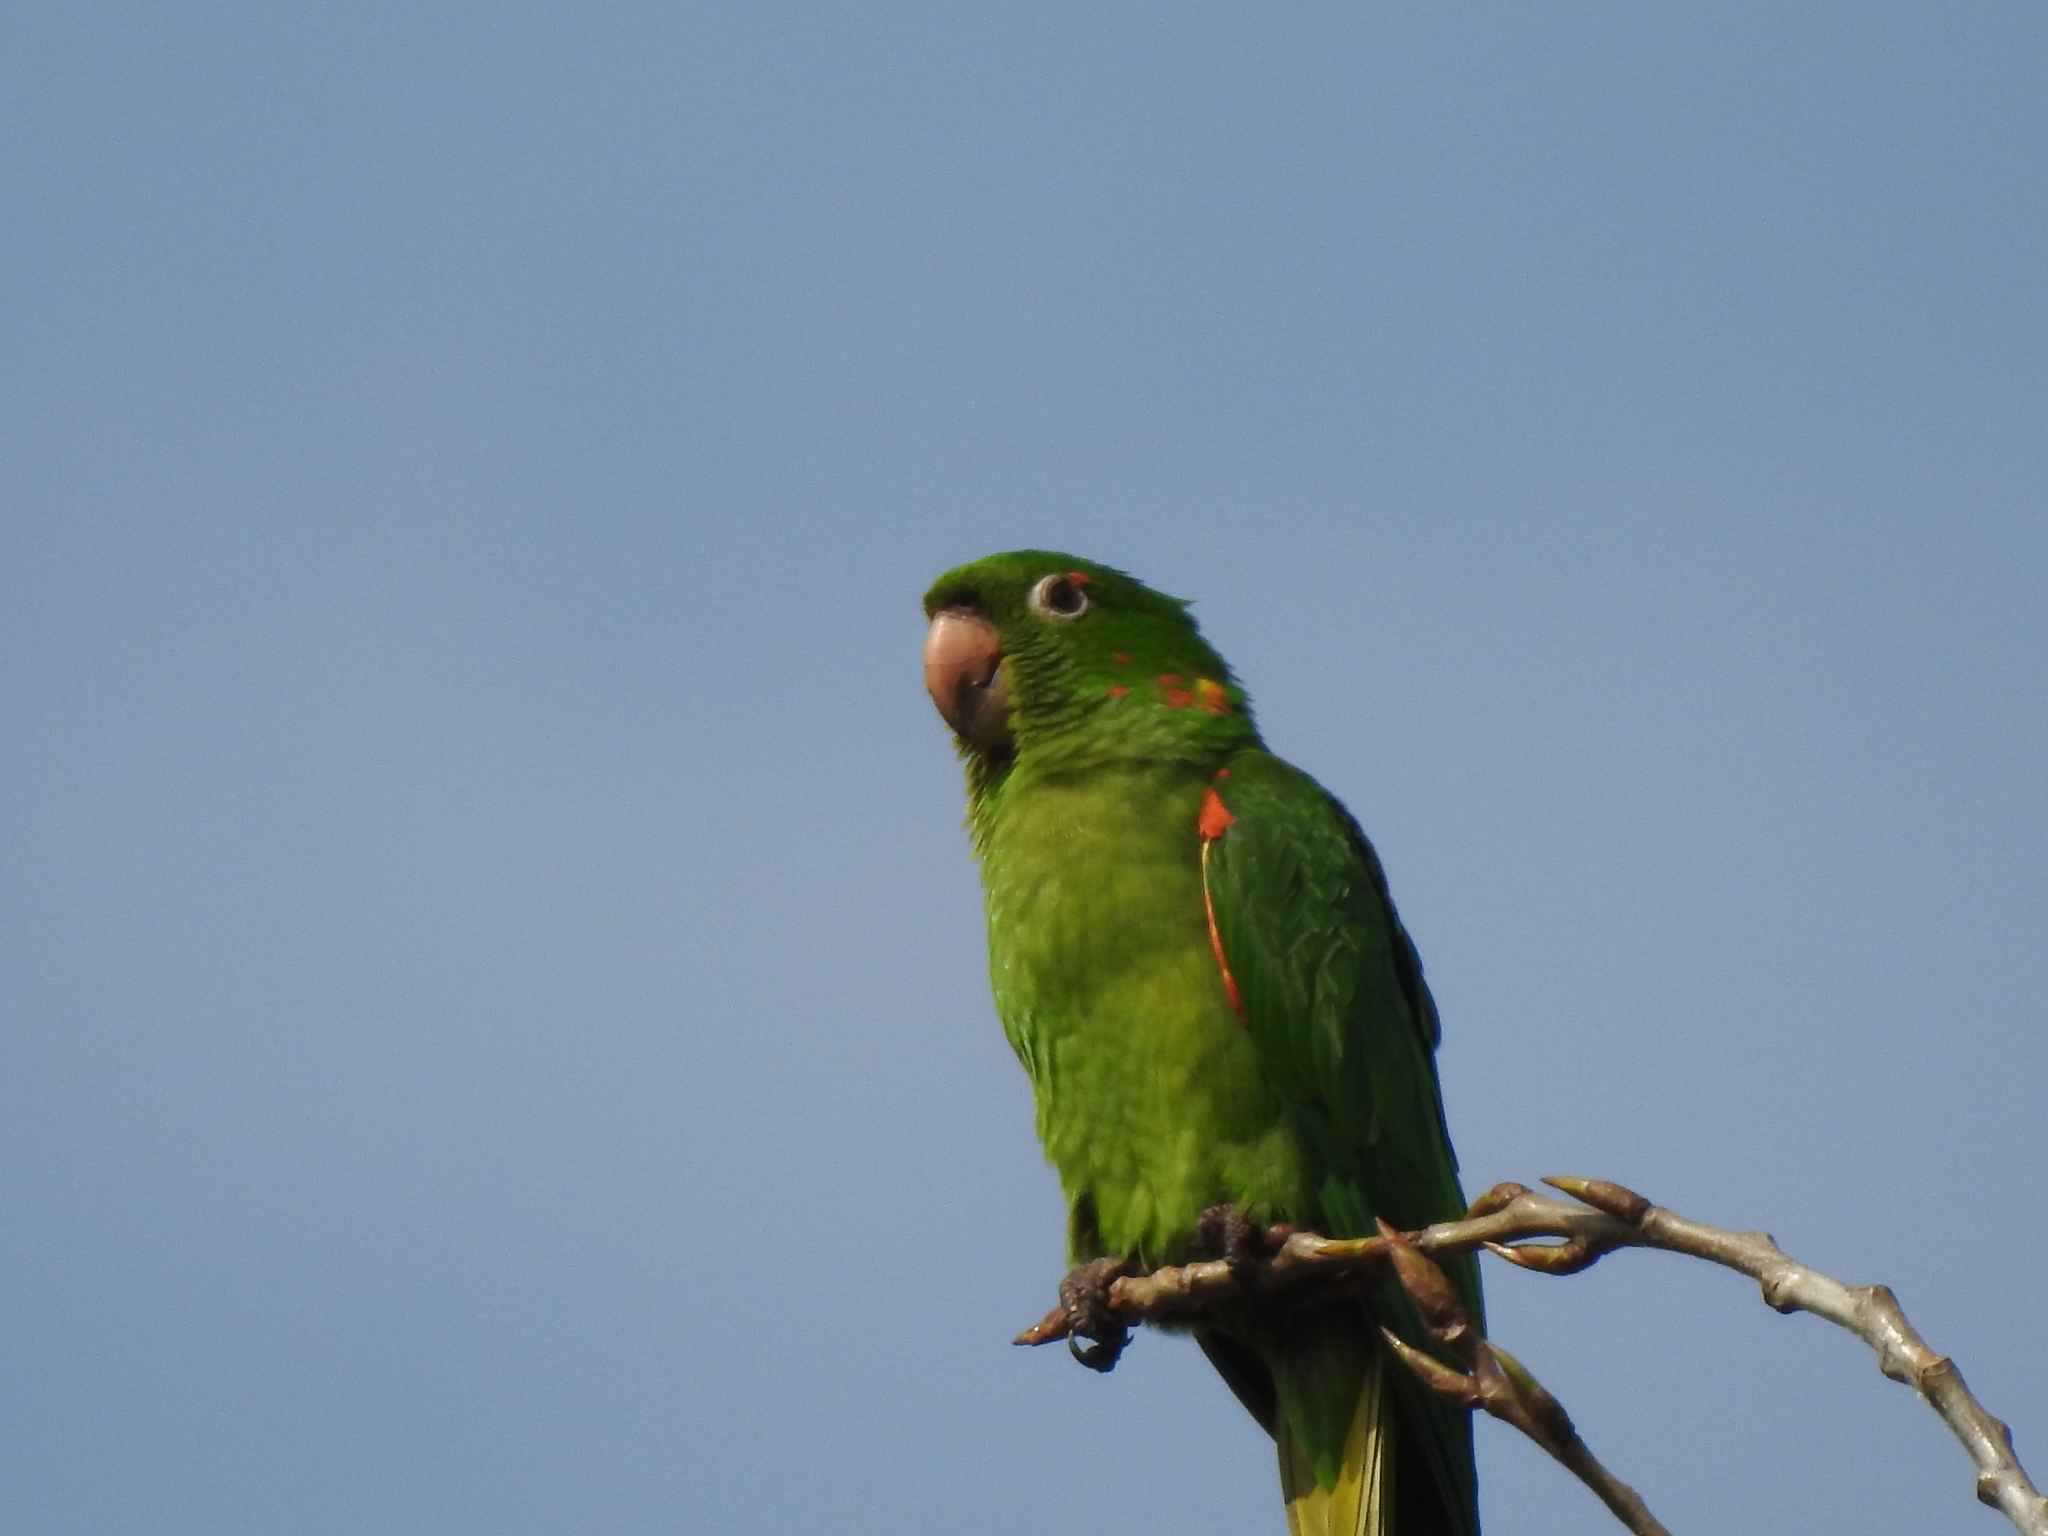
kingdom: Animalia
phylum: Chordata
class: Aves
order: Psittaciformes
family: Psittacidae
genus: Aratinga
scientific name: Aratinga leucophthalma
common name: White-eyed parakeet
